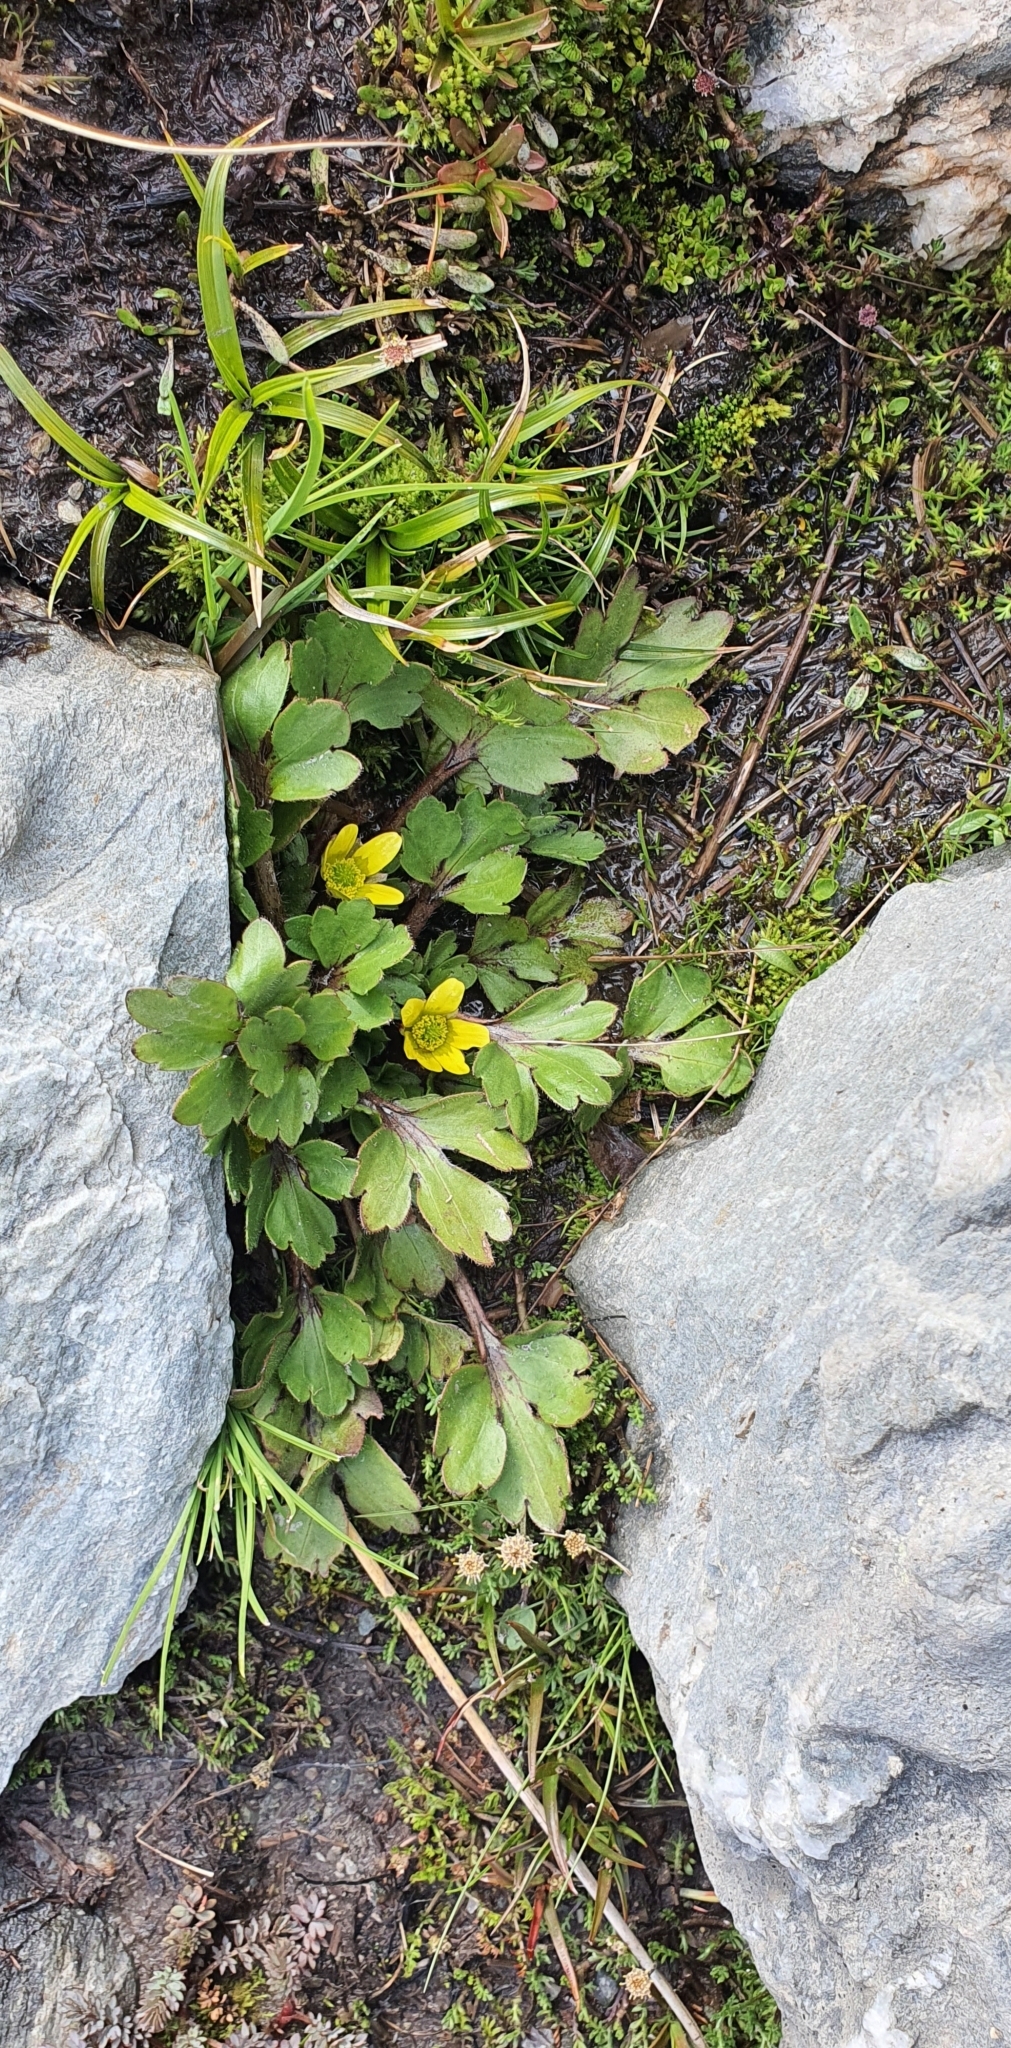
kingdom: Plantae
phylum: Tracheophyta
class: Magnoliopsida
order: Ranunculales
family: Ranunculaceae
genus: Ranunculus
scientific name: Ranunculus foliosus
